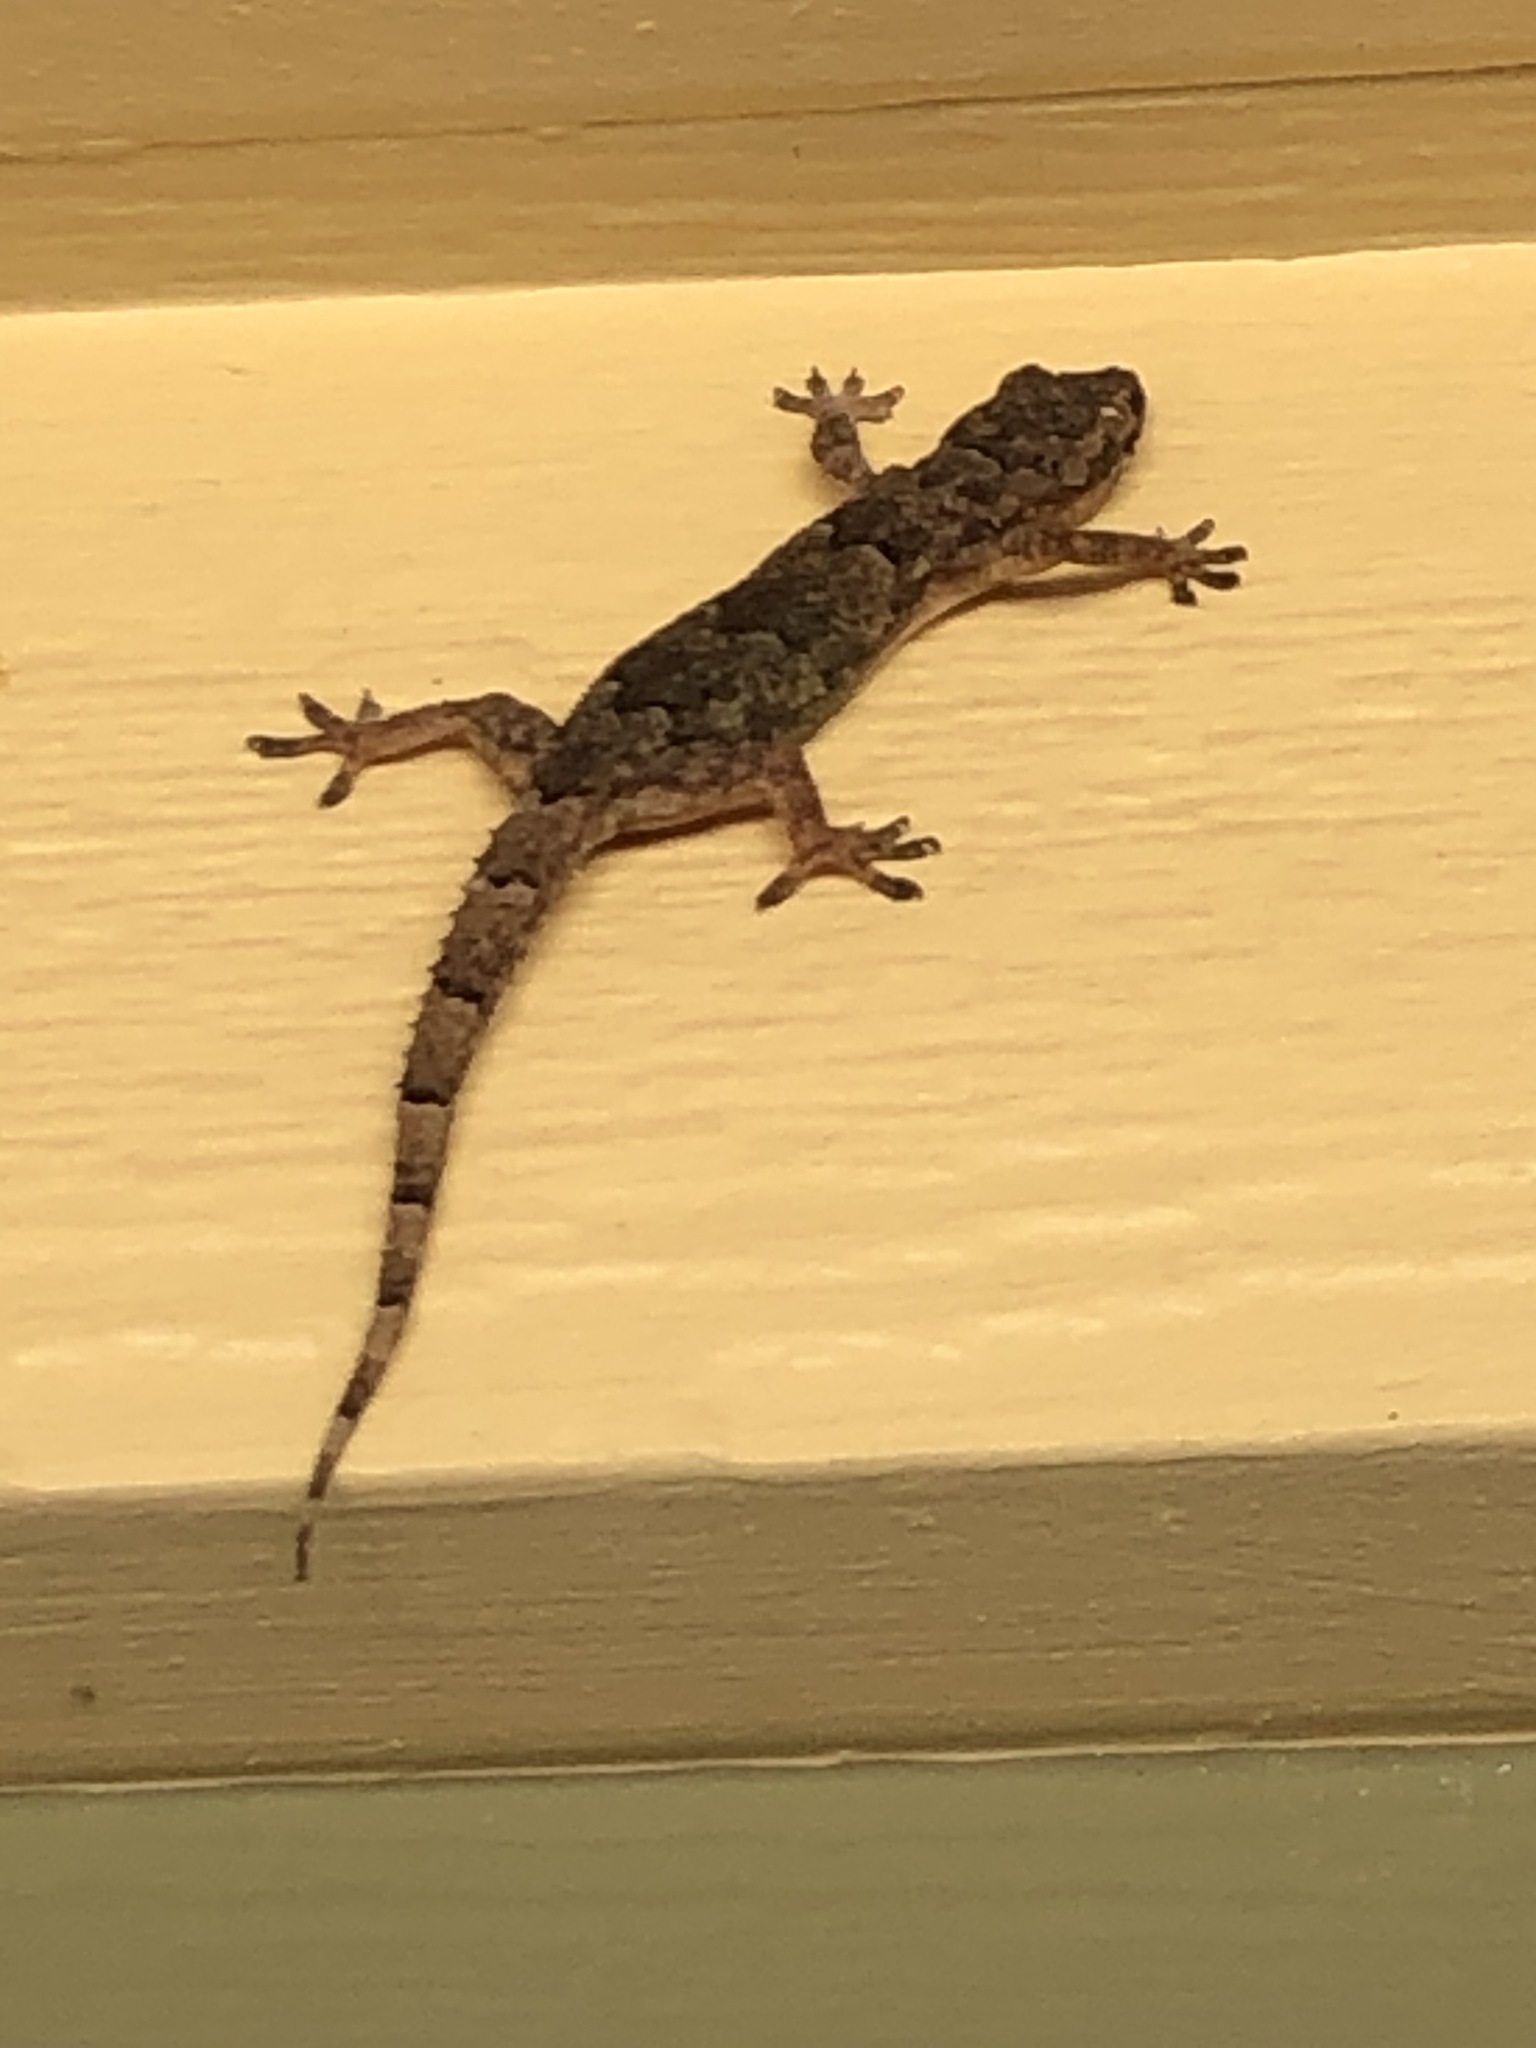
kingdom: Animalia
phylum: Chordata
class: Squamata
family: Gekkonidae
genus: Hemidactylus
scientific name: Hemidactylus mabouia
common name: House gecko
